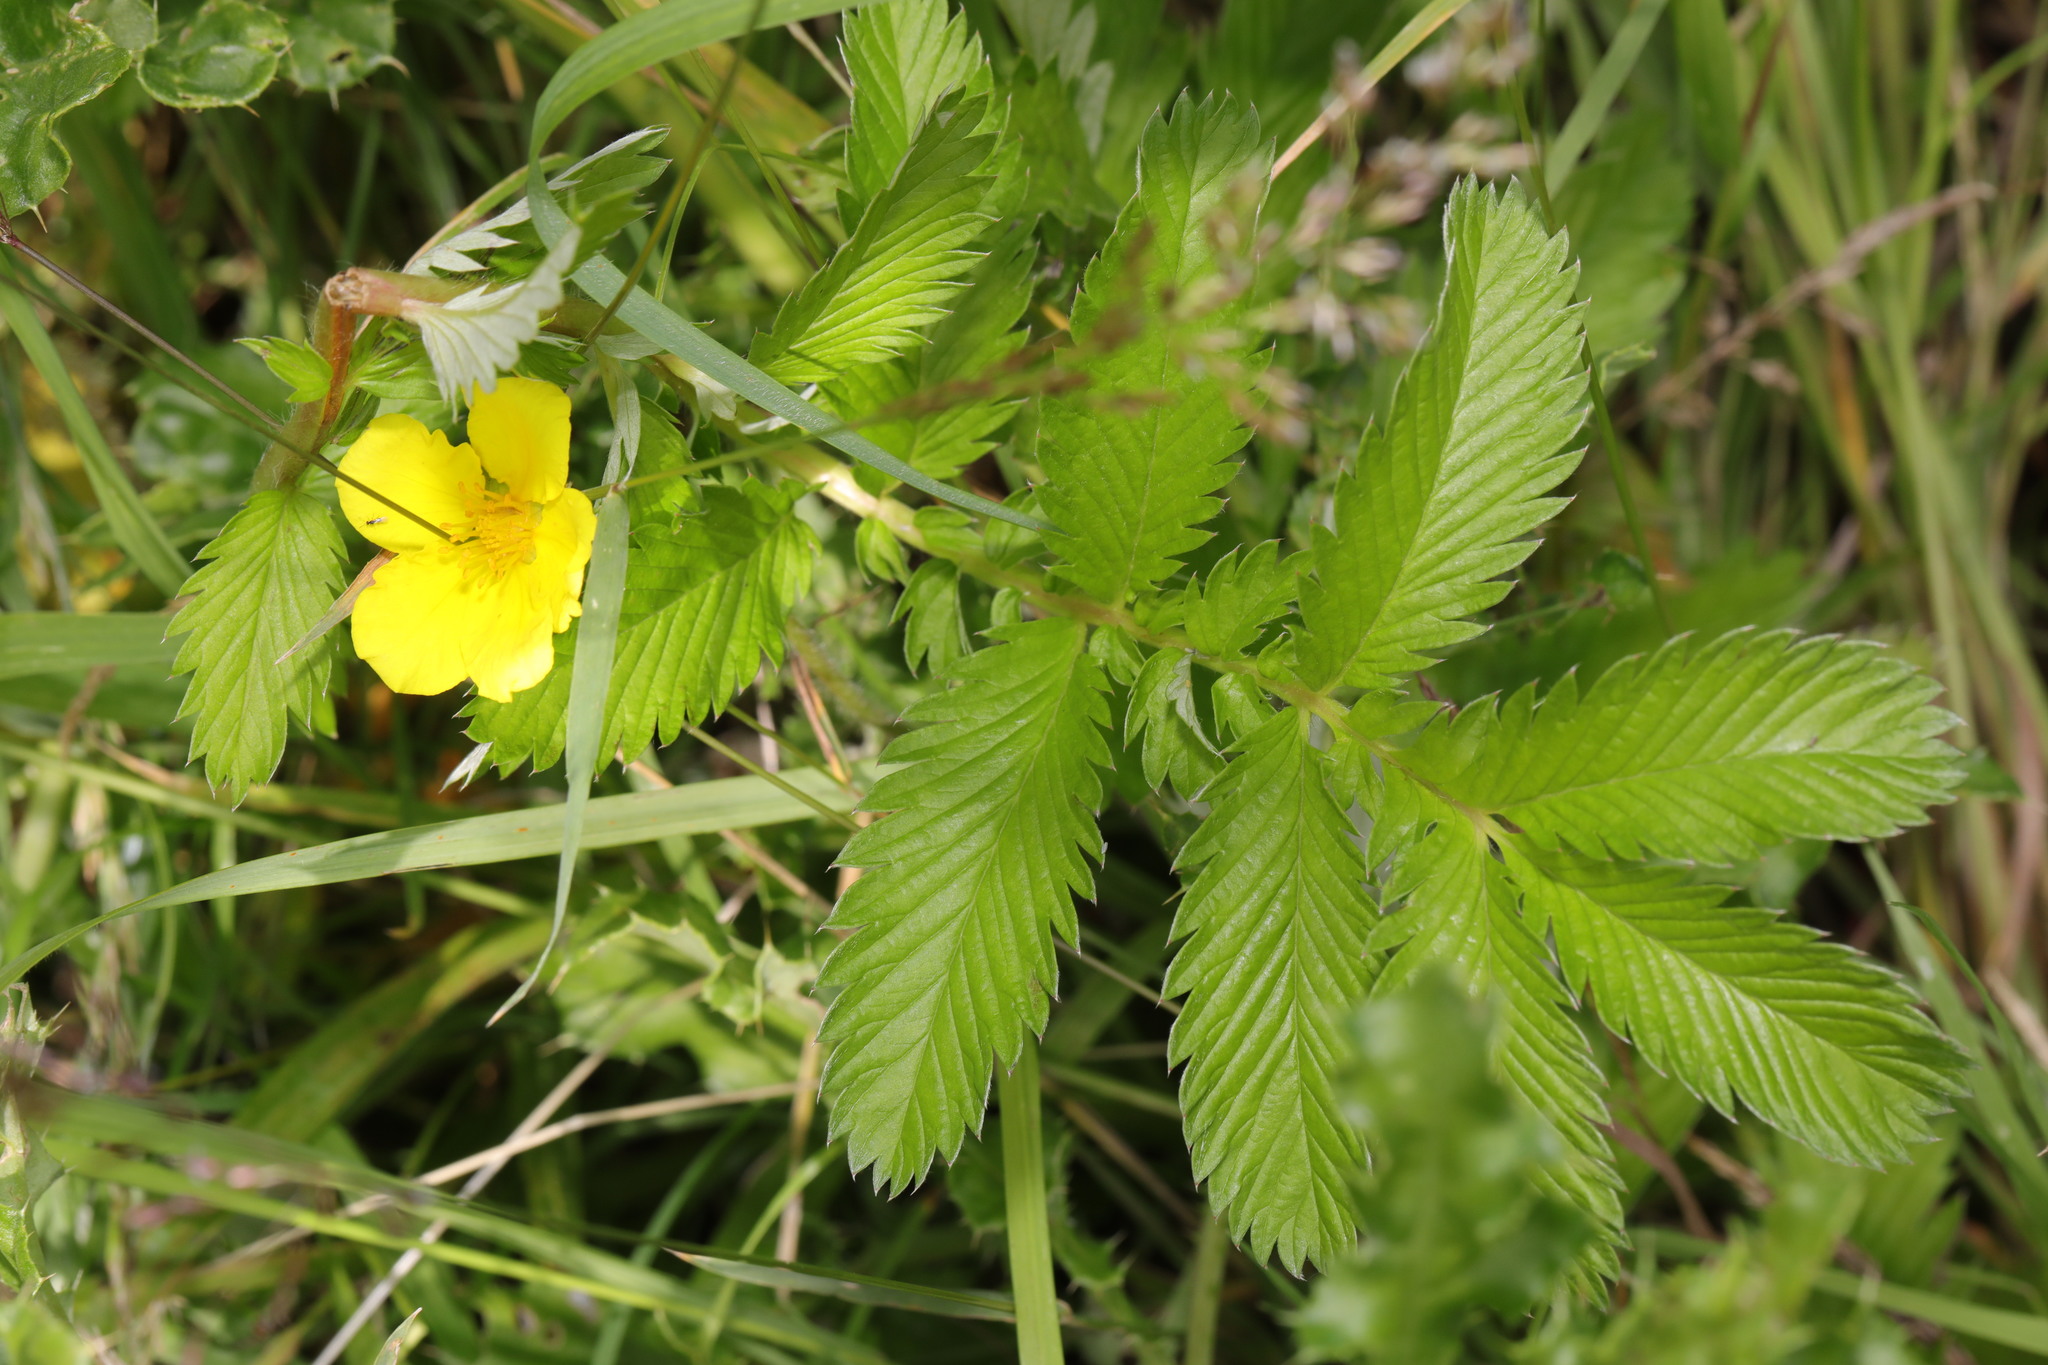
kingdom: Plantae
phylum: Tracheophyta
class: Magnoliopsida
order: Rosales
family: Rosaceae
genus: Argentina
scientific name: Argentina anserina
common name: Common silverweed
